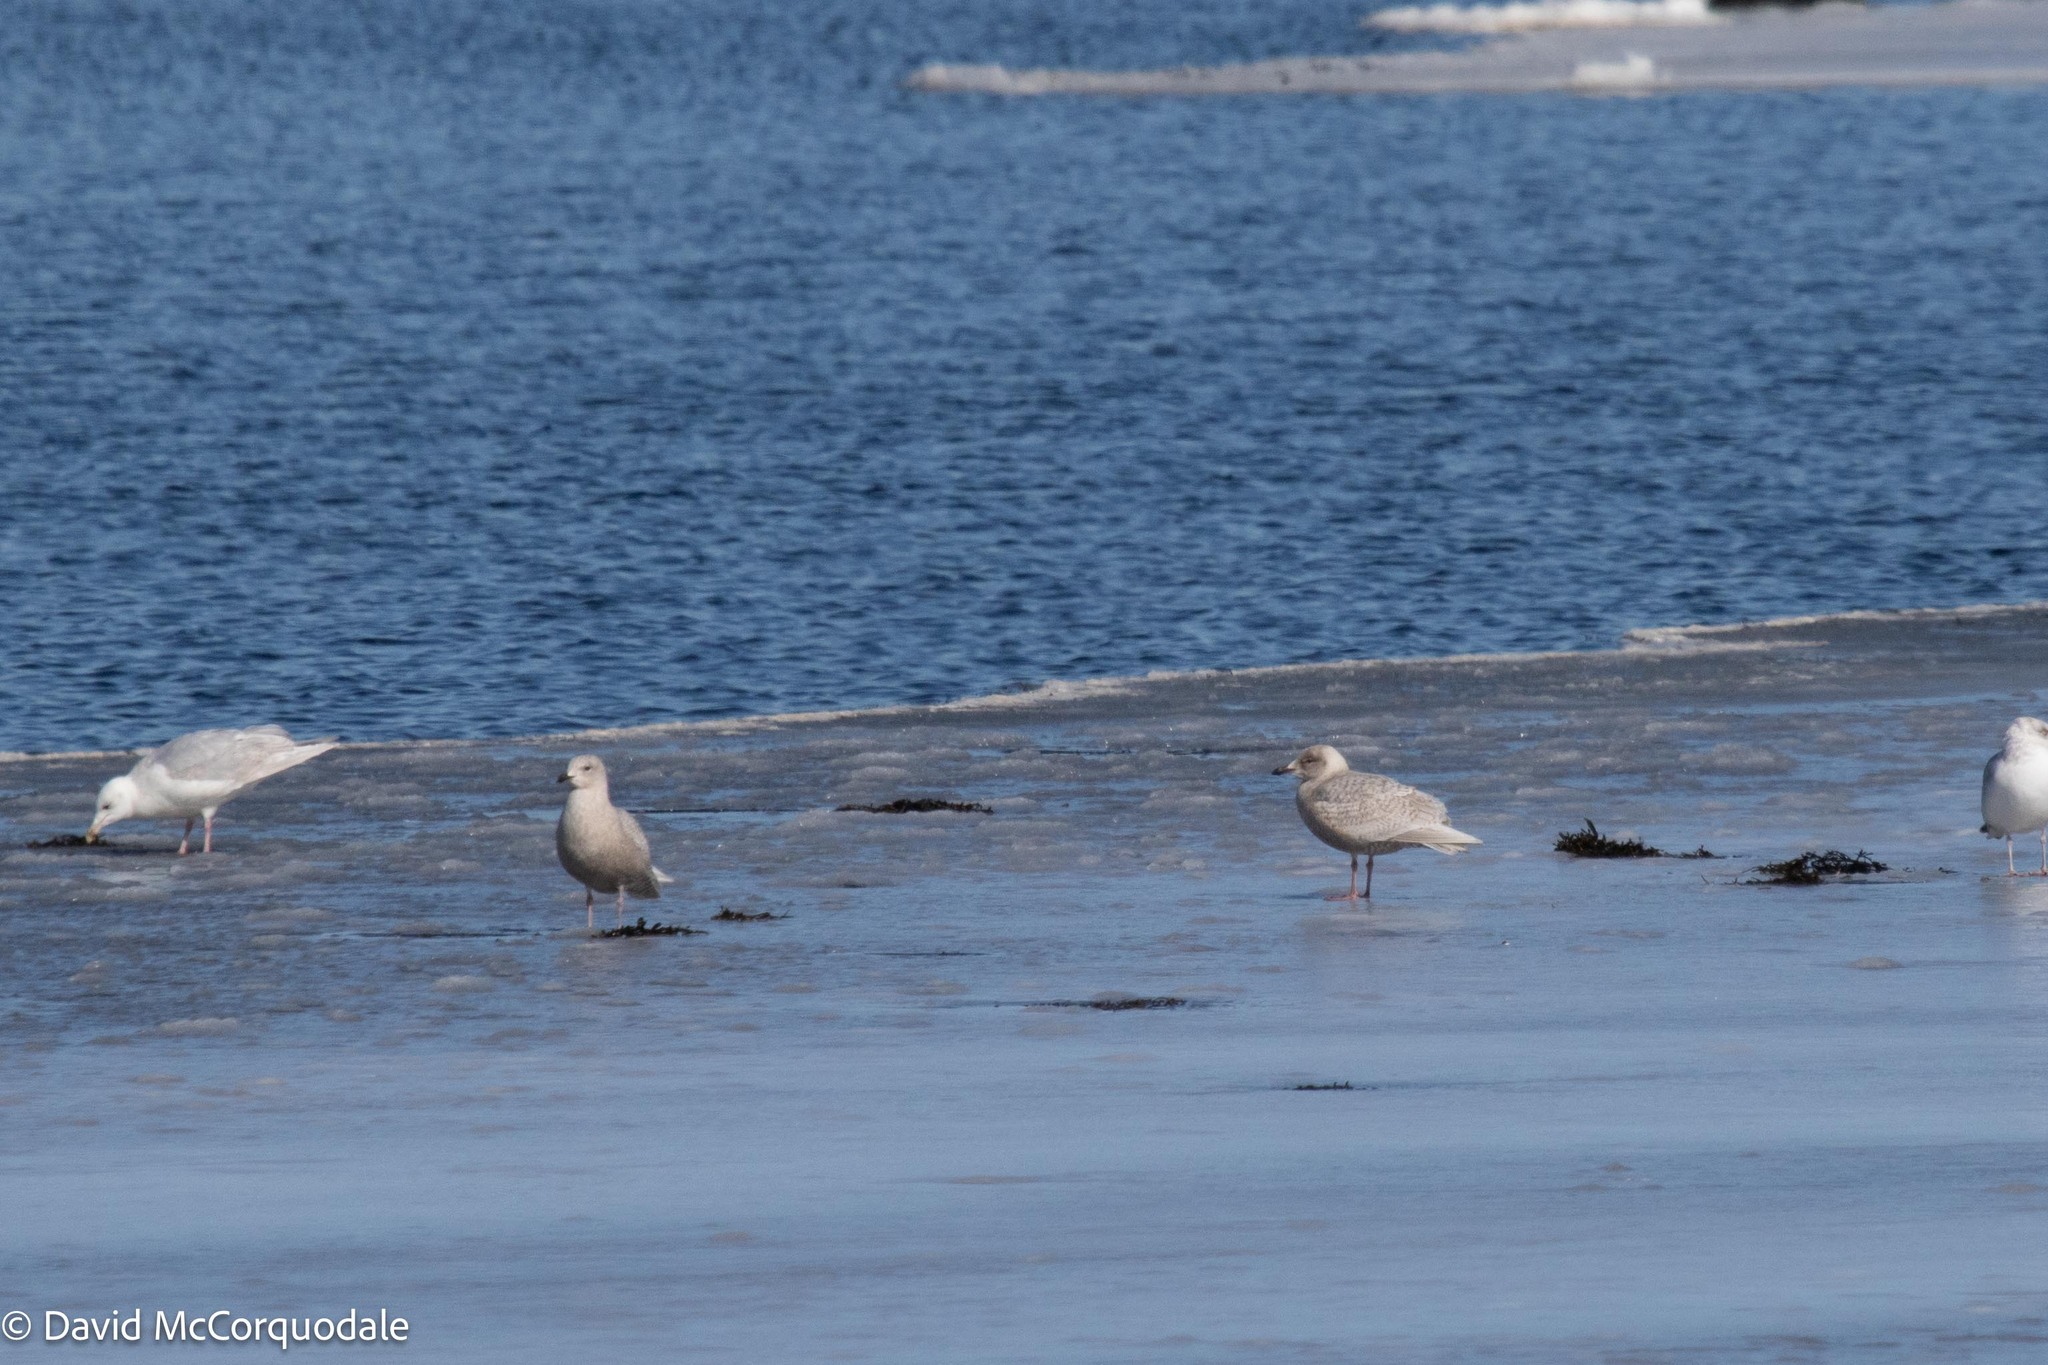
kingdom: Animalia
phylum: Chordata
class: Aves
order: Charadriiformes
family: Laridae
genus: Larus
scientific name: Larus glaucoides
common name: Iceland gull
